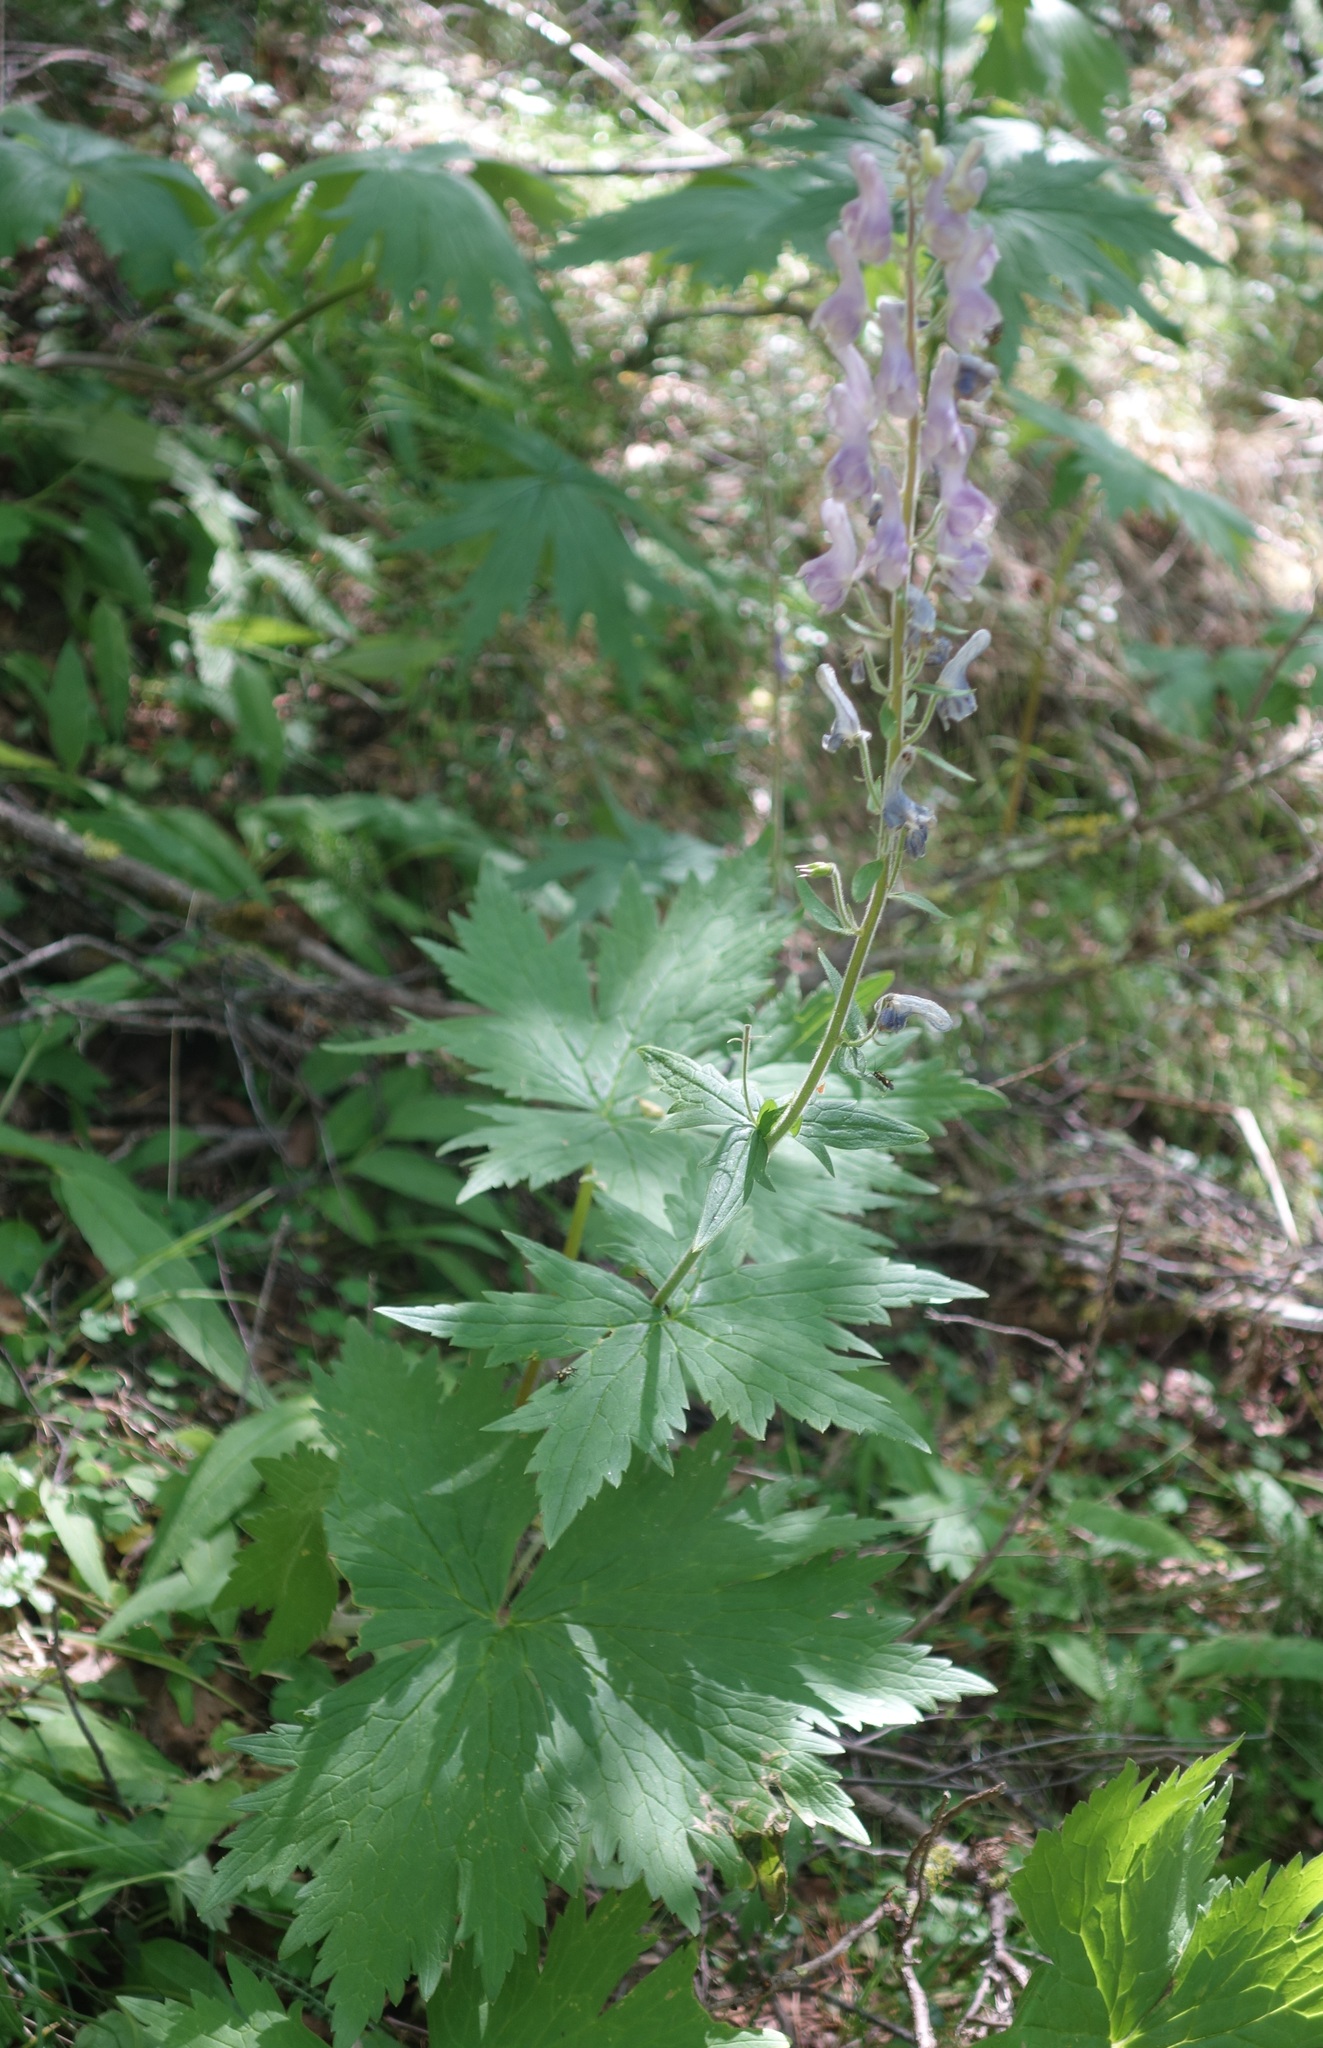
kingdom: Plantae
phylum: Tracheophyta
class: Magnoliopsida
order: Ranunculales
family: Ranunculaceae
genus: Aconitum
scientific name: Aconitum septentrionale
